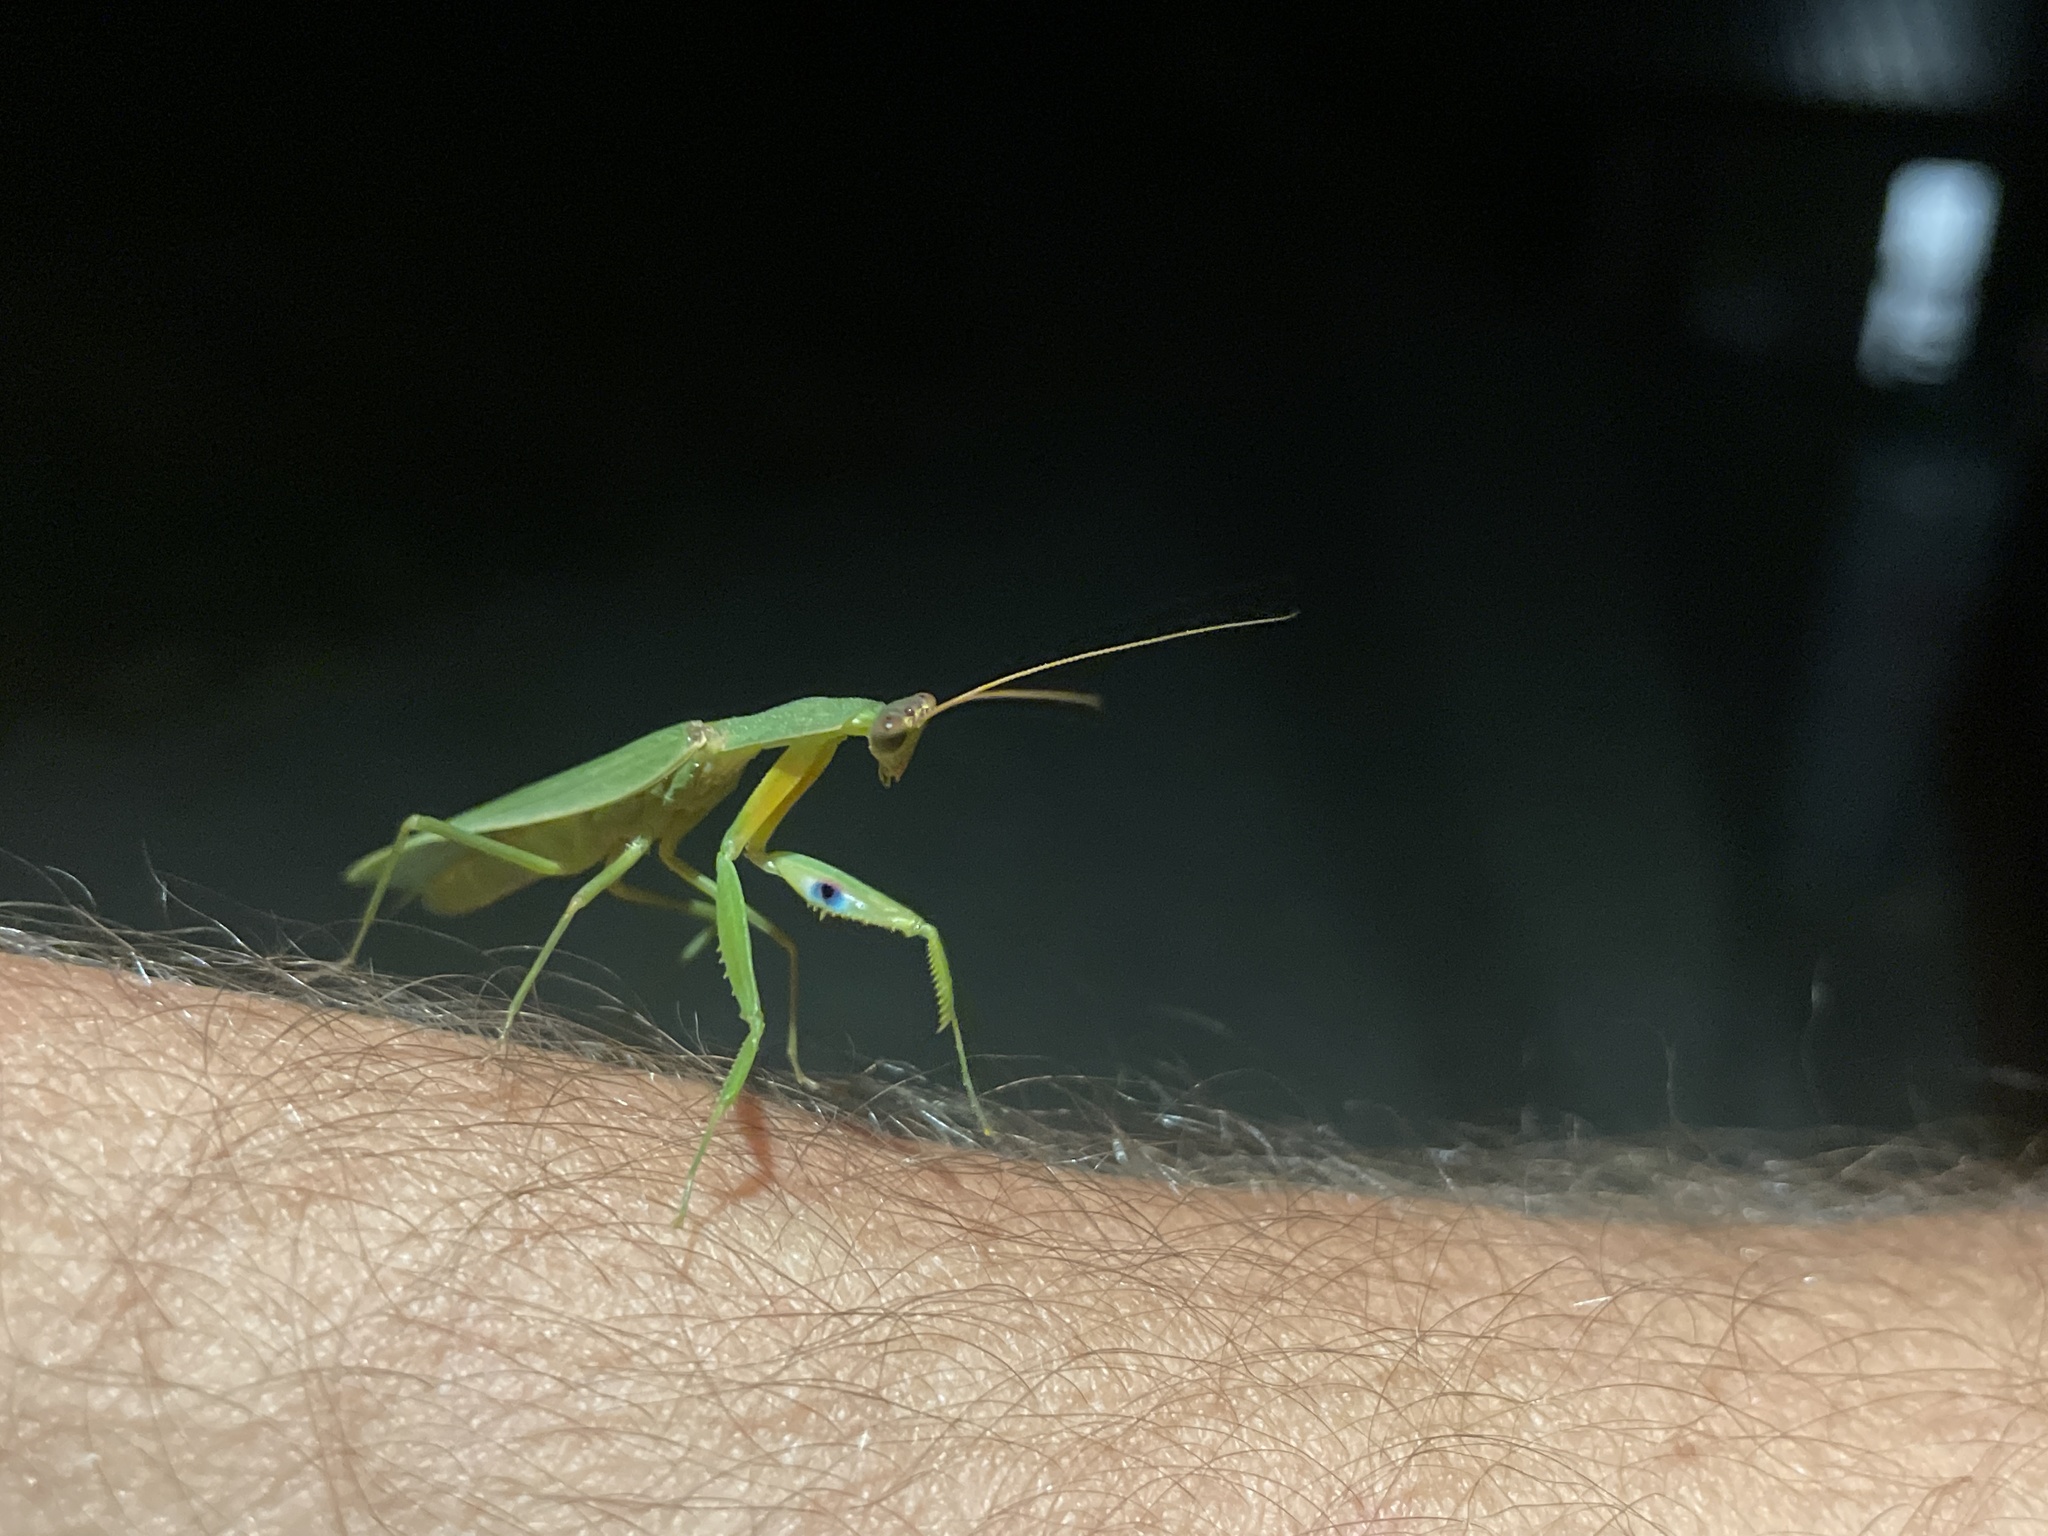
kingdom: Animalia
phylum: Arthropoda
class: Insecta
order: Mantodea
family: Mantidae
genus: Orthodera
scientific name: Orthodera novaezealandiae
